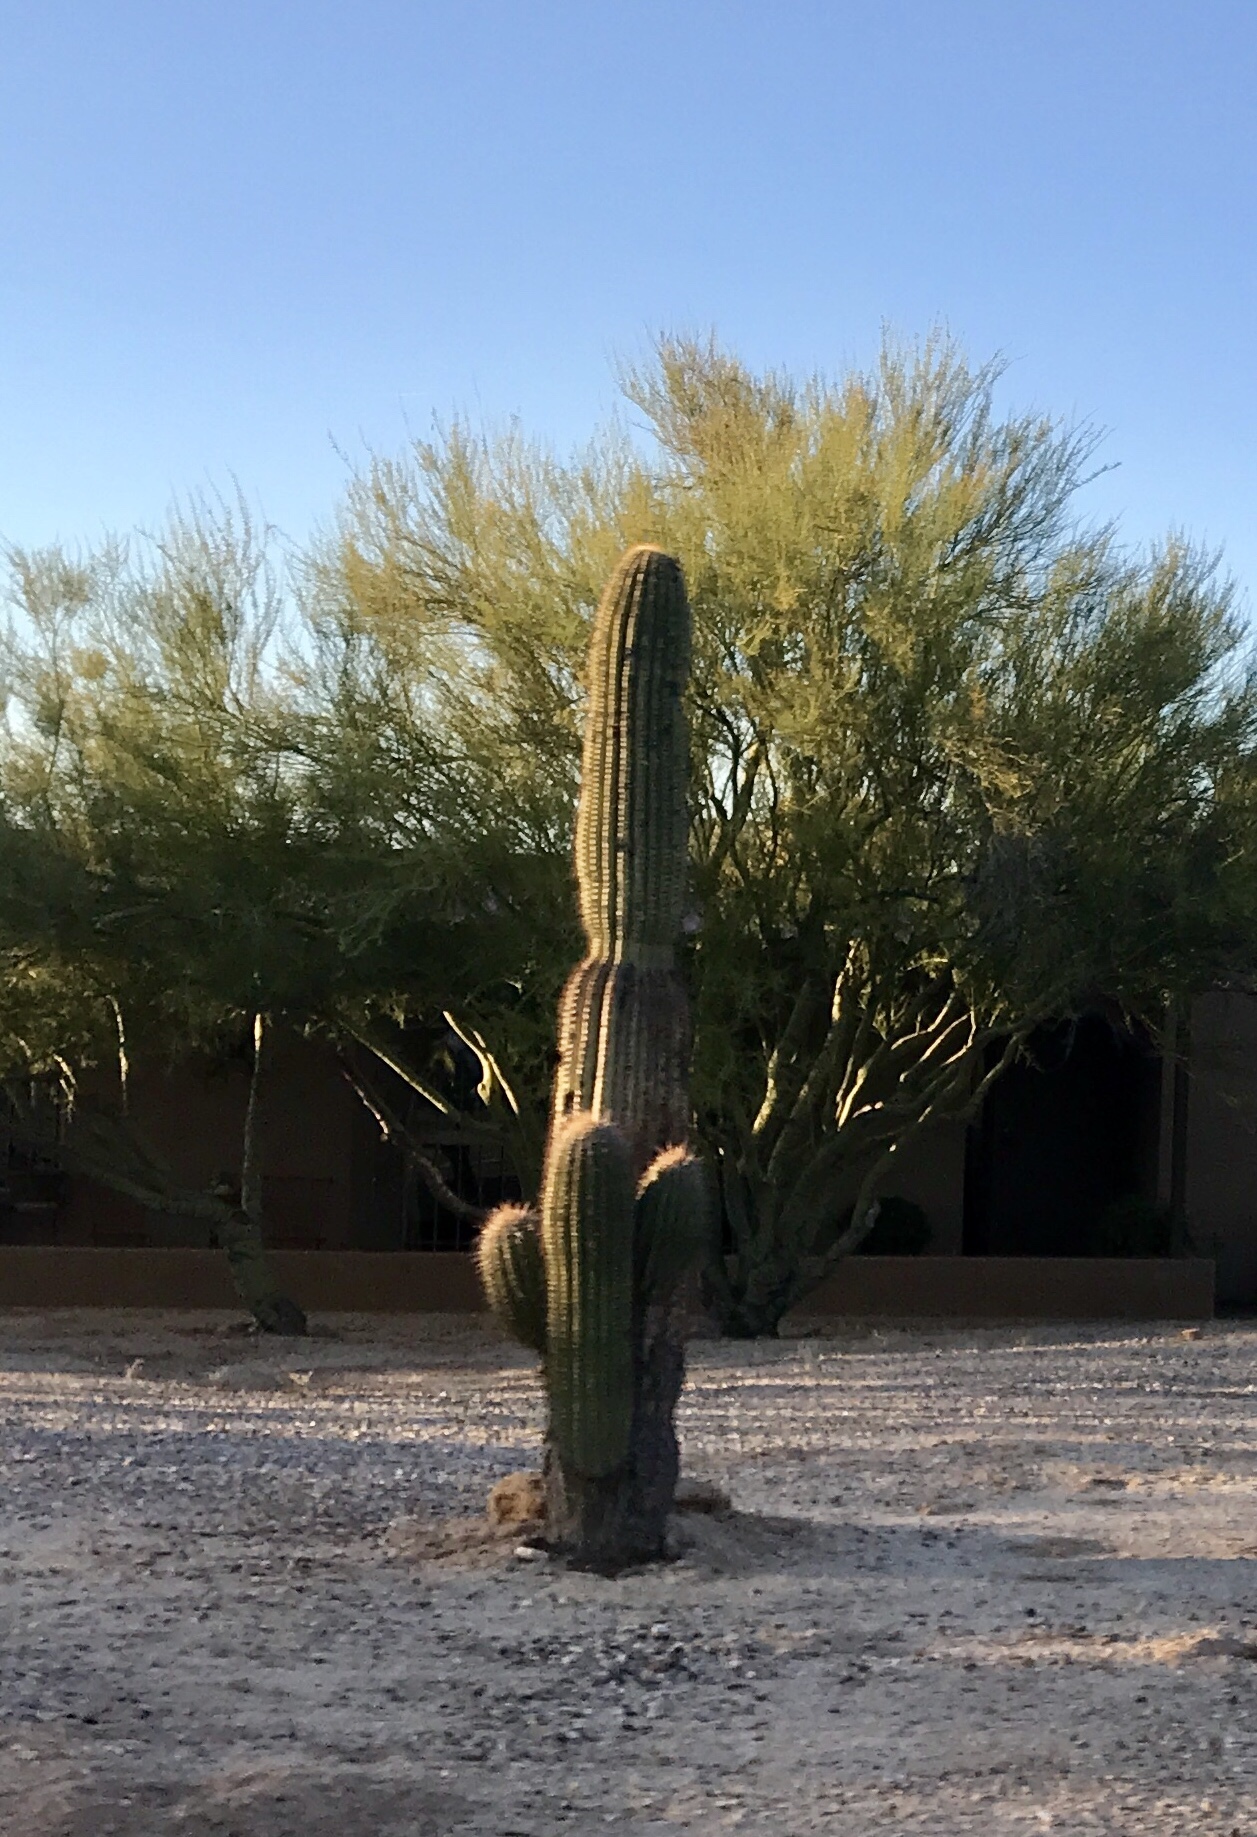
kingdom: Plantae
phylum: Tracheophyta
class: Magnoliopsida
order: Caryophyllales
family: Cactaceae
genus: Carnegiea
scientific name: Carnegiea gigantea
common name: Saguaro
